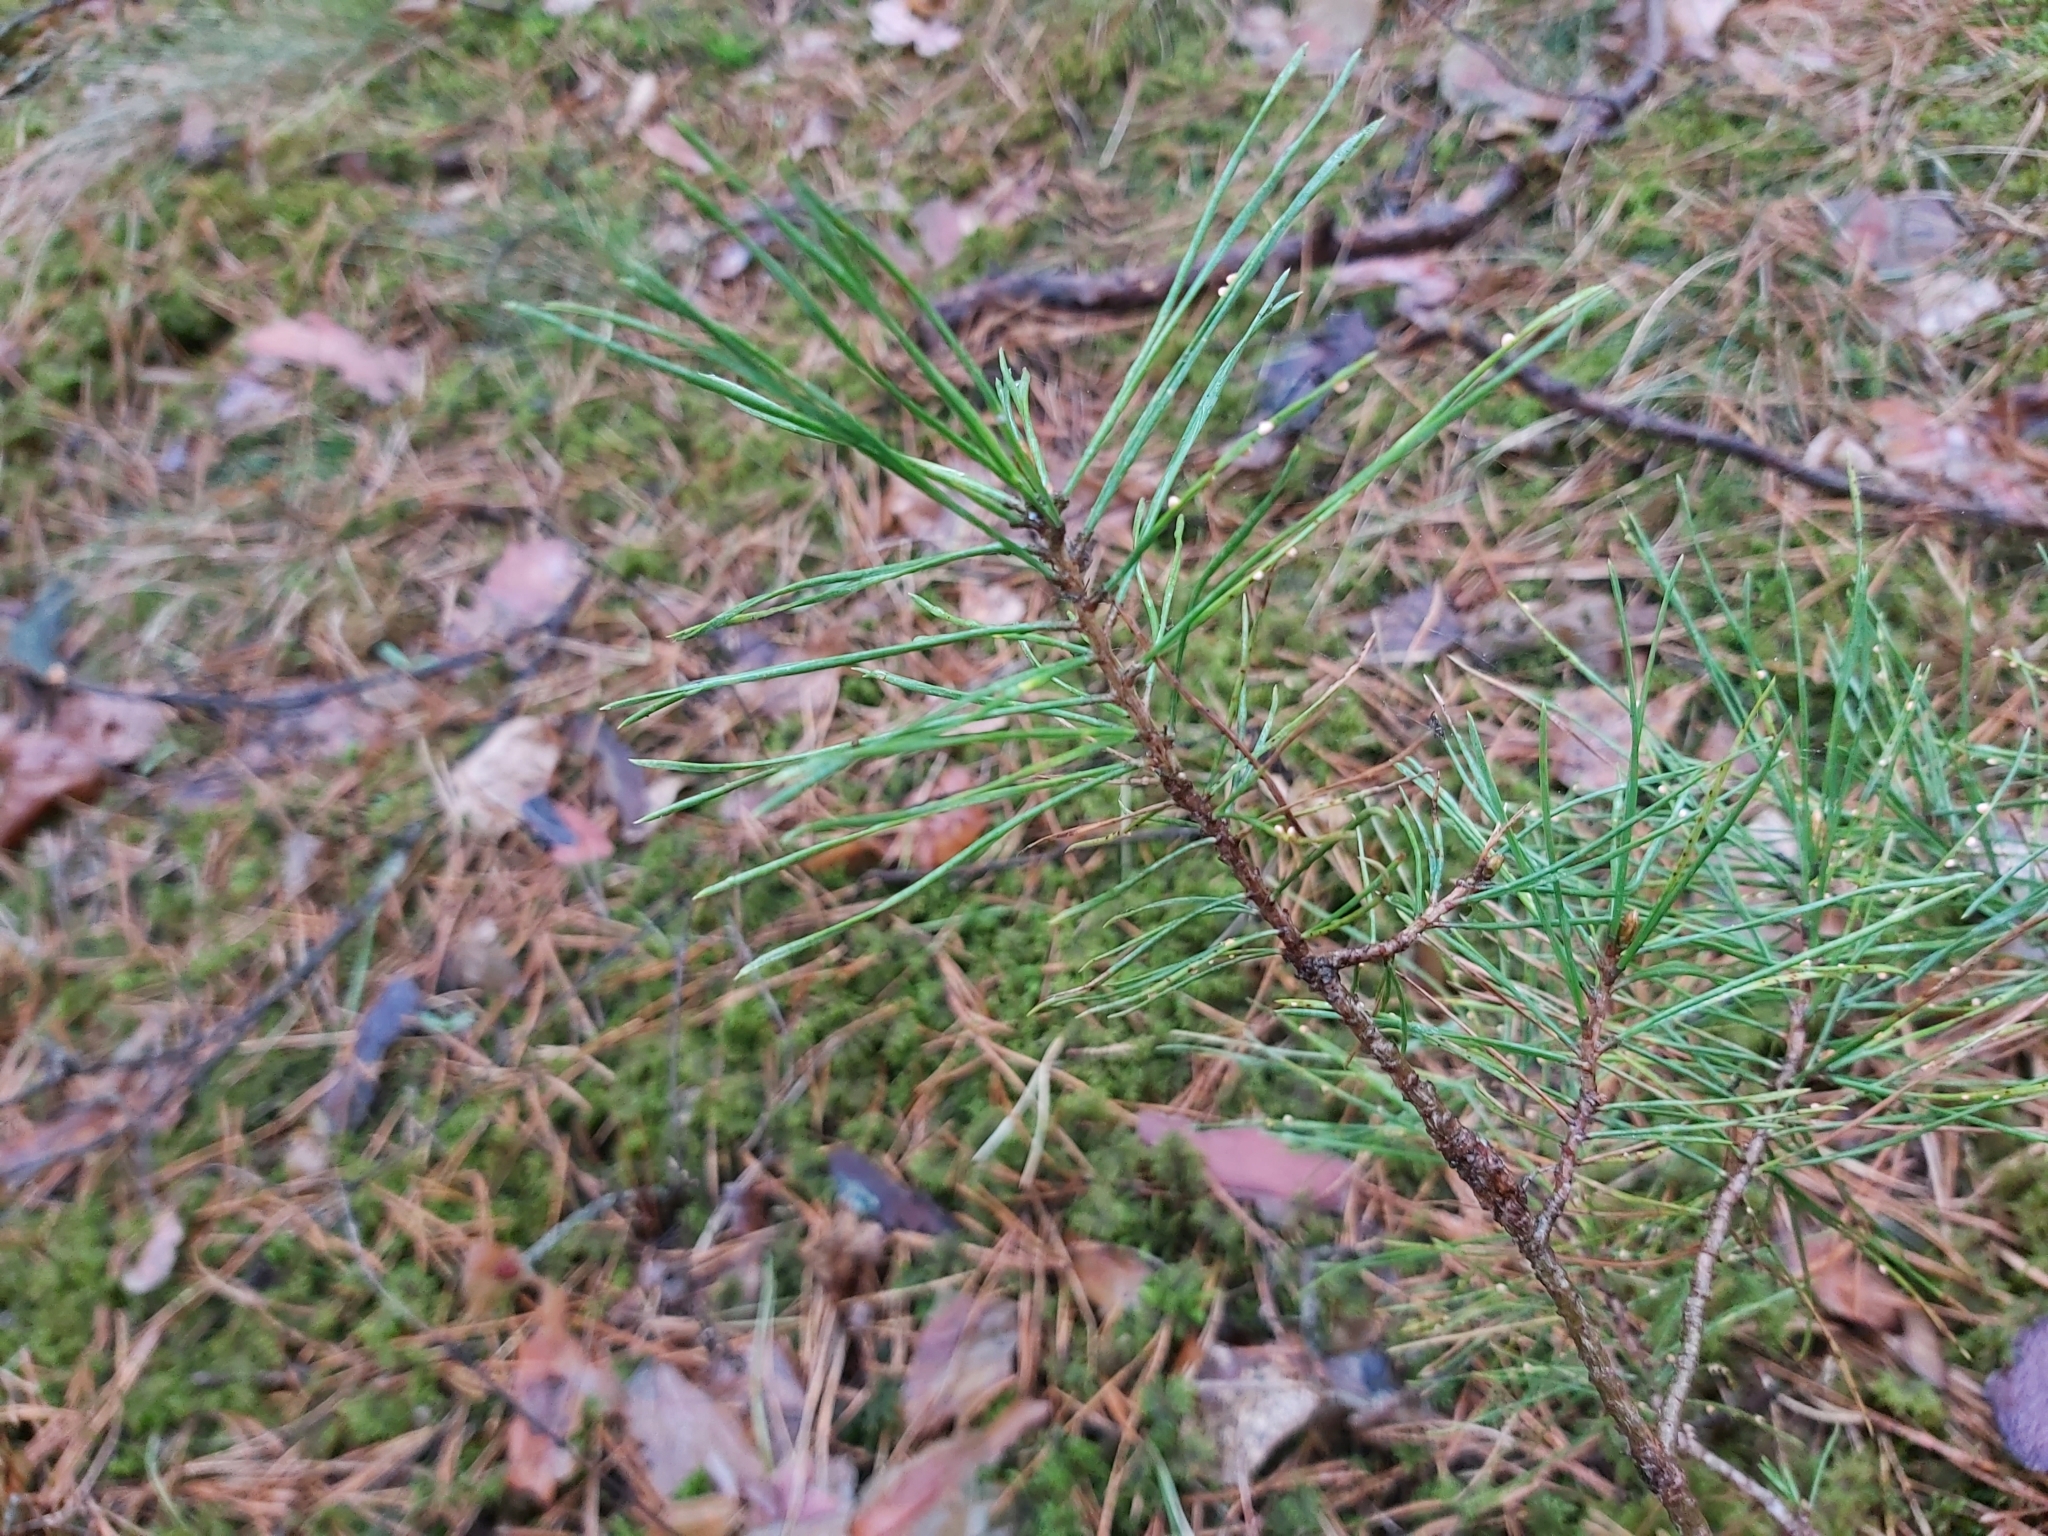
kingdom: Plantae
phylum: Tracheophyta
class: Pinopsida
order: Pinales
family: Pinaceae
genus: Pinus
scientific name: Pinus sylvestris
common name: Scots pine
